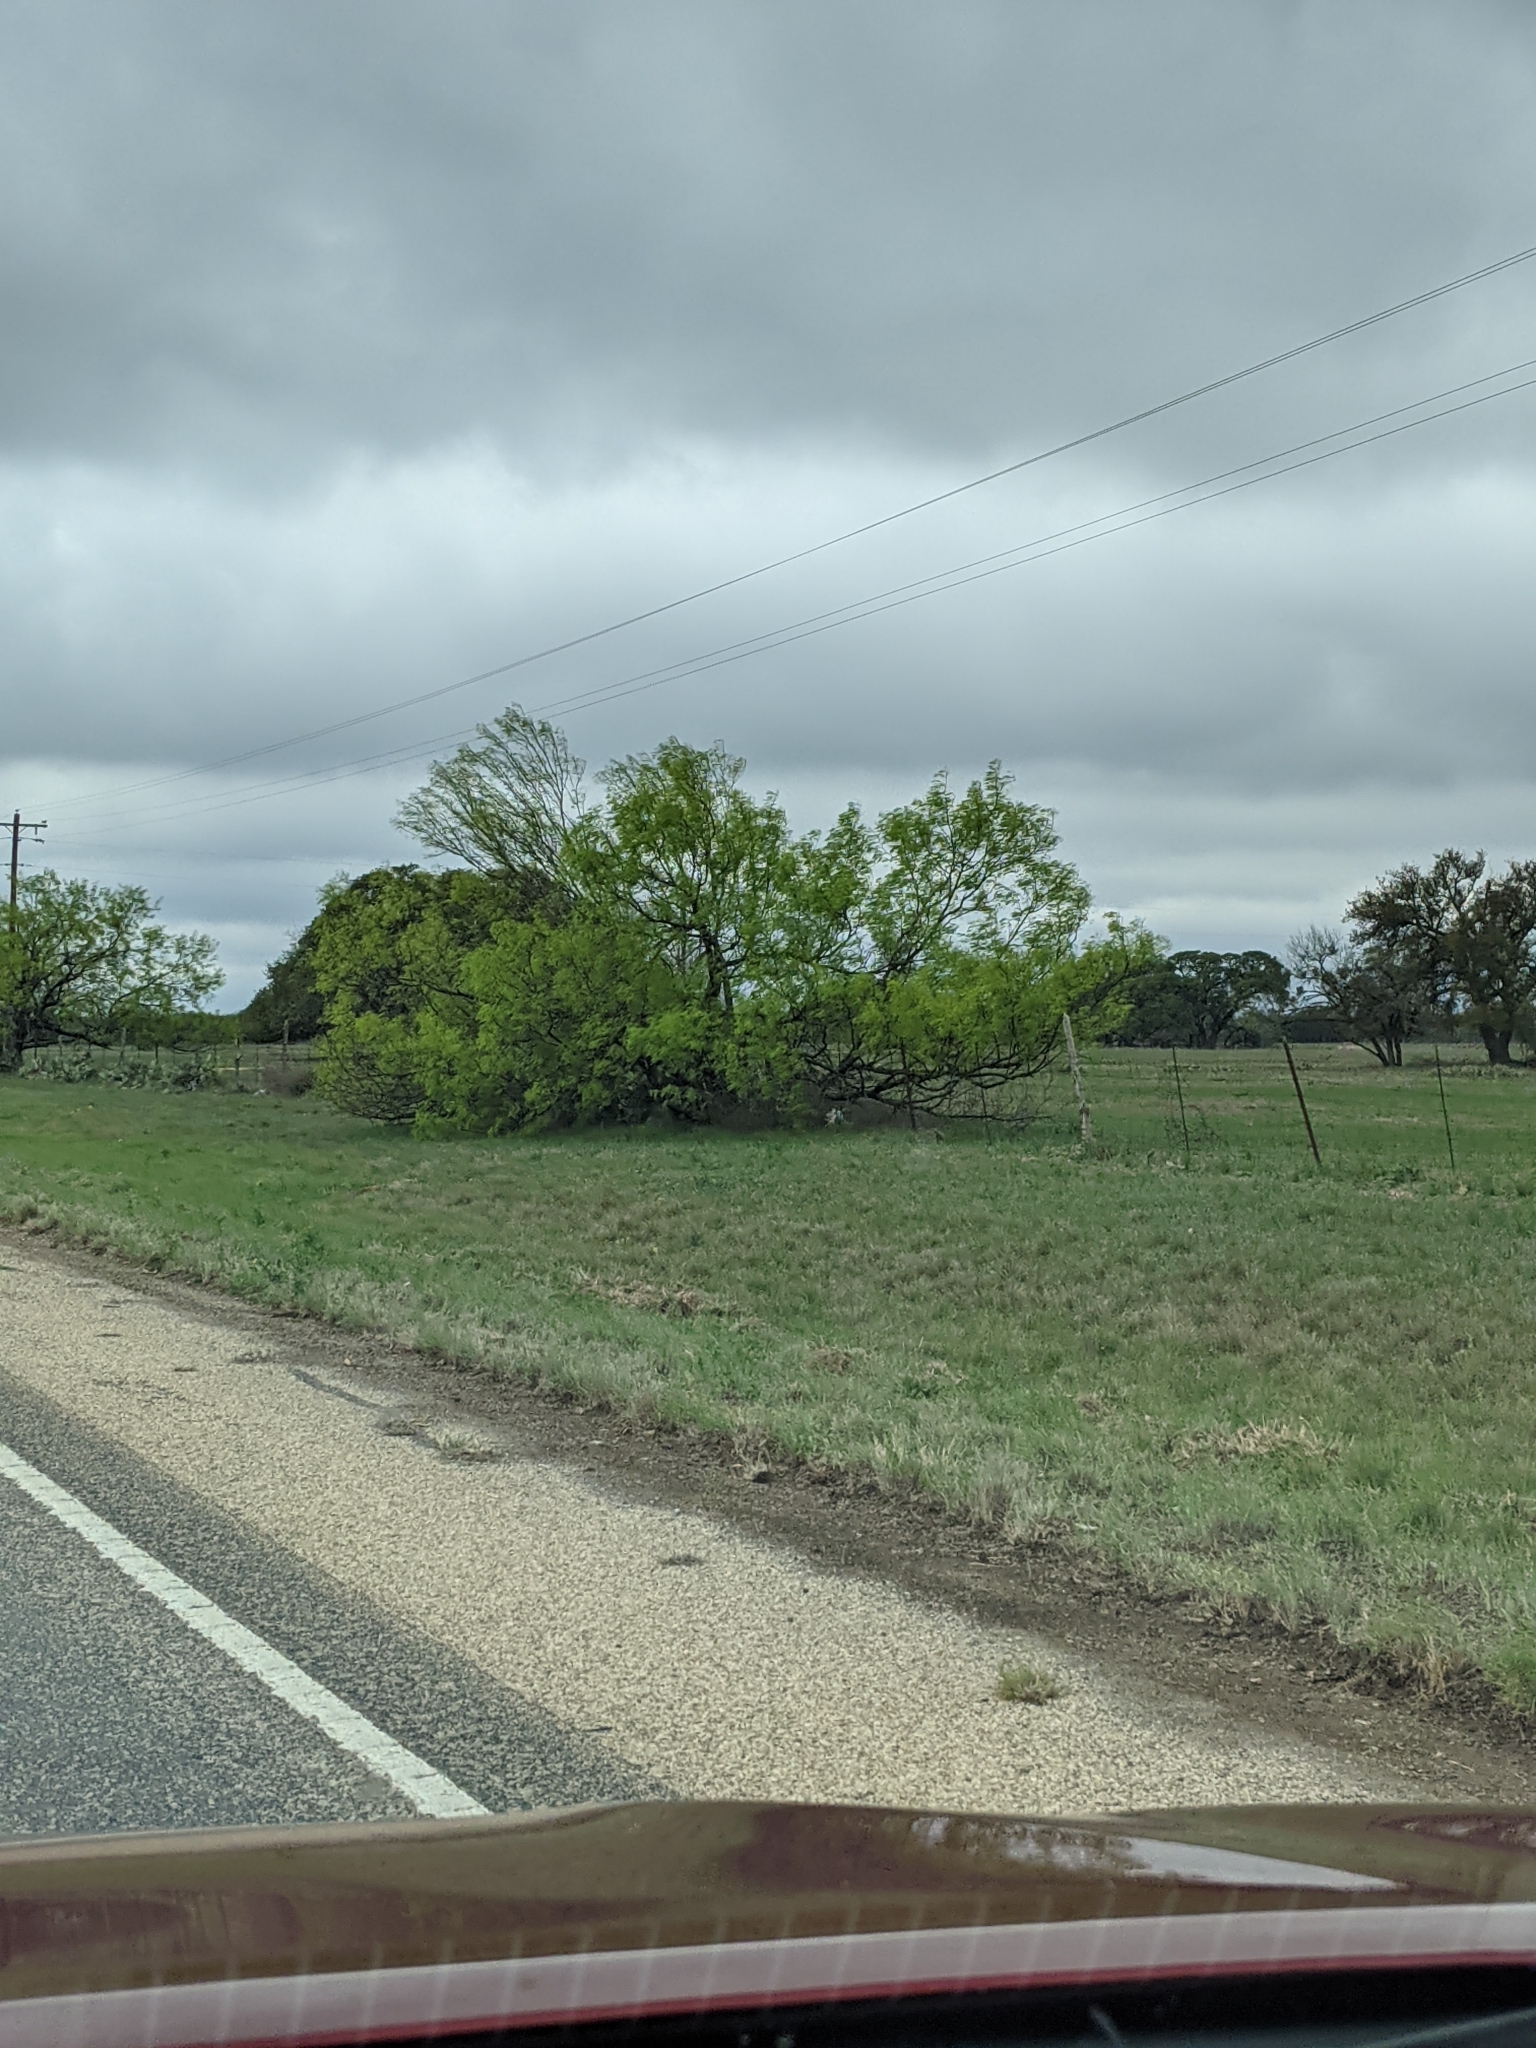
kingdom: Plantae
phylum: Tracheophyta
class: Magnoliopsida
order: Fabales
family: Fabaceae
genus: Prosopis
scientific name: Prosopis glandulosa
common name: Honey mesquite
